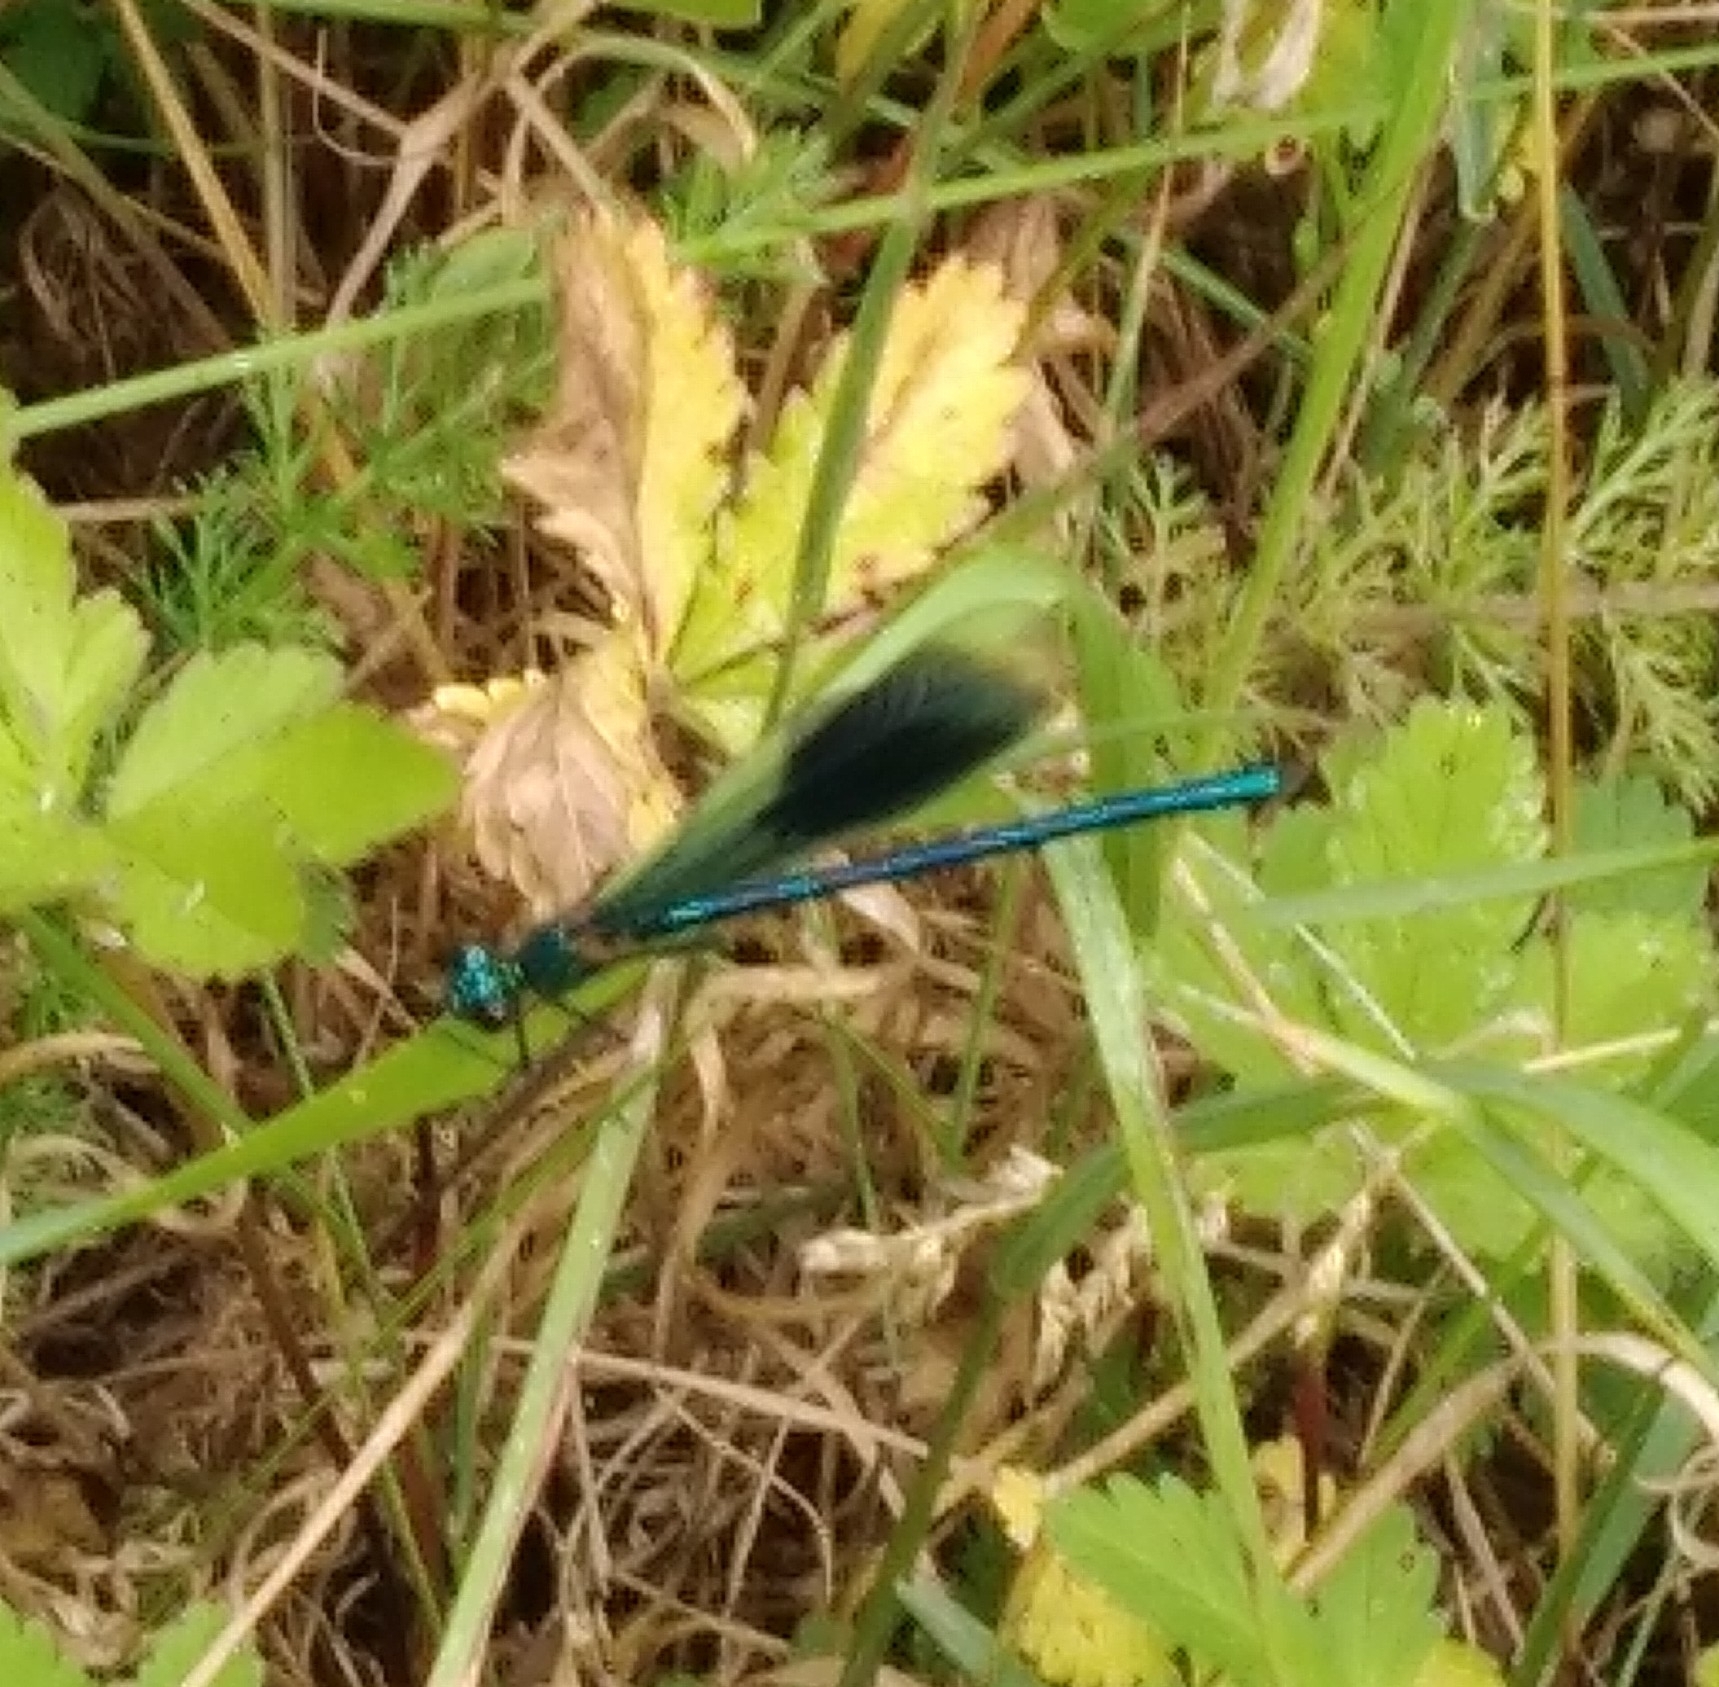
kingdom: Animalia
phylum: Arthropoda
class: Insecta
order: Odonata
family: Calopterygidae
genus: Calopteryx
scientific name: Calopteryx splendens
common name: Banded demoiselle
